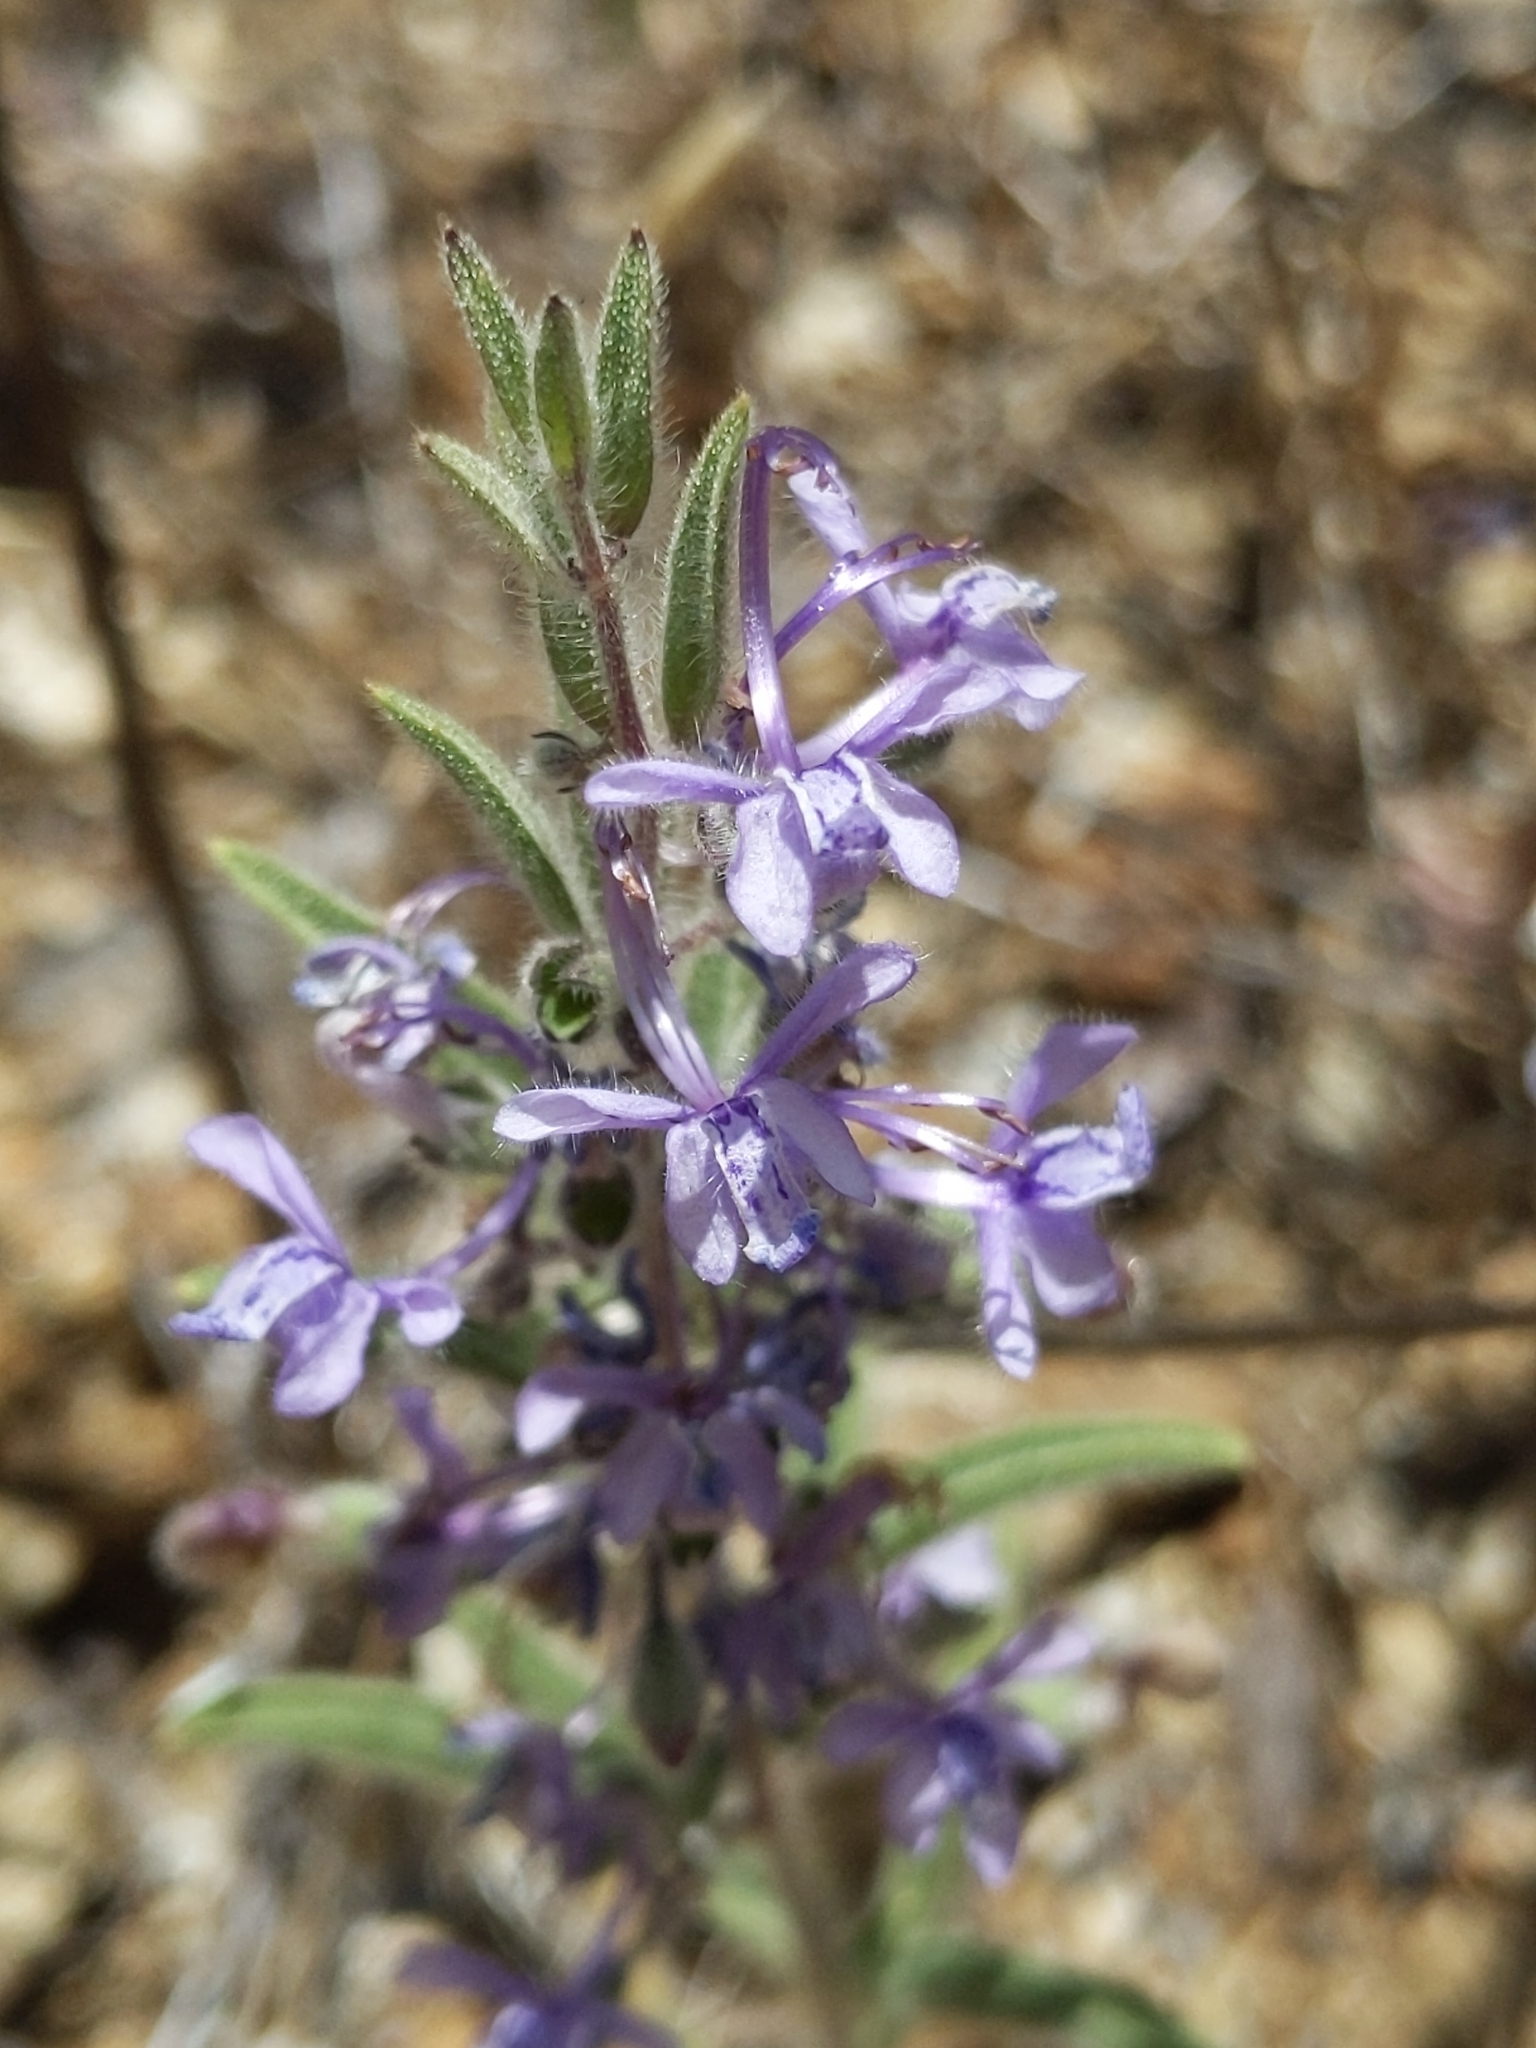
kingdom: Plantae
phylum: Tracheophyta
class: Magnoliopsida
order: Lamiales
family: Lamiaceae
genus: Trichostema
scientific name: Trichostema lanceolatum
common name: Vinegar-weed
